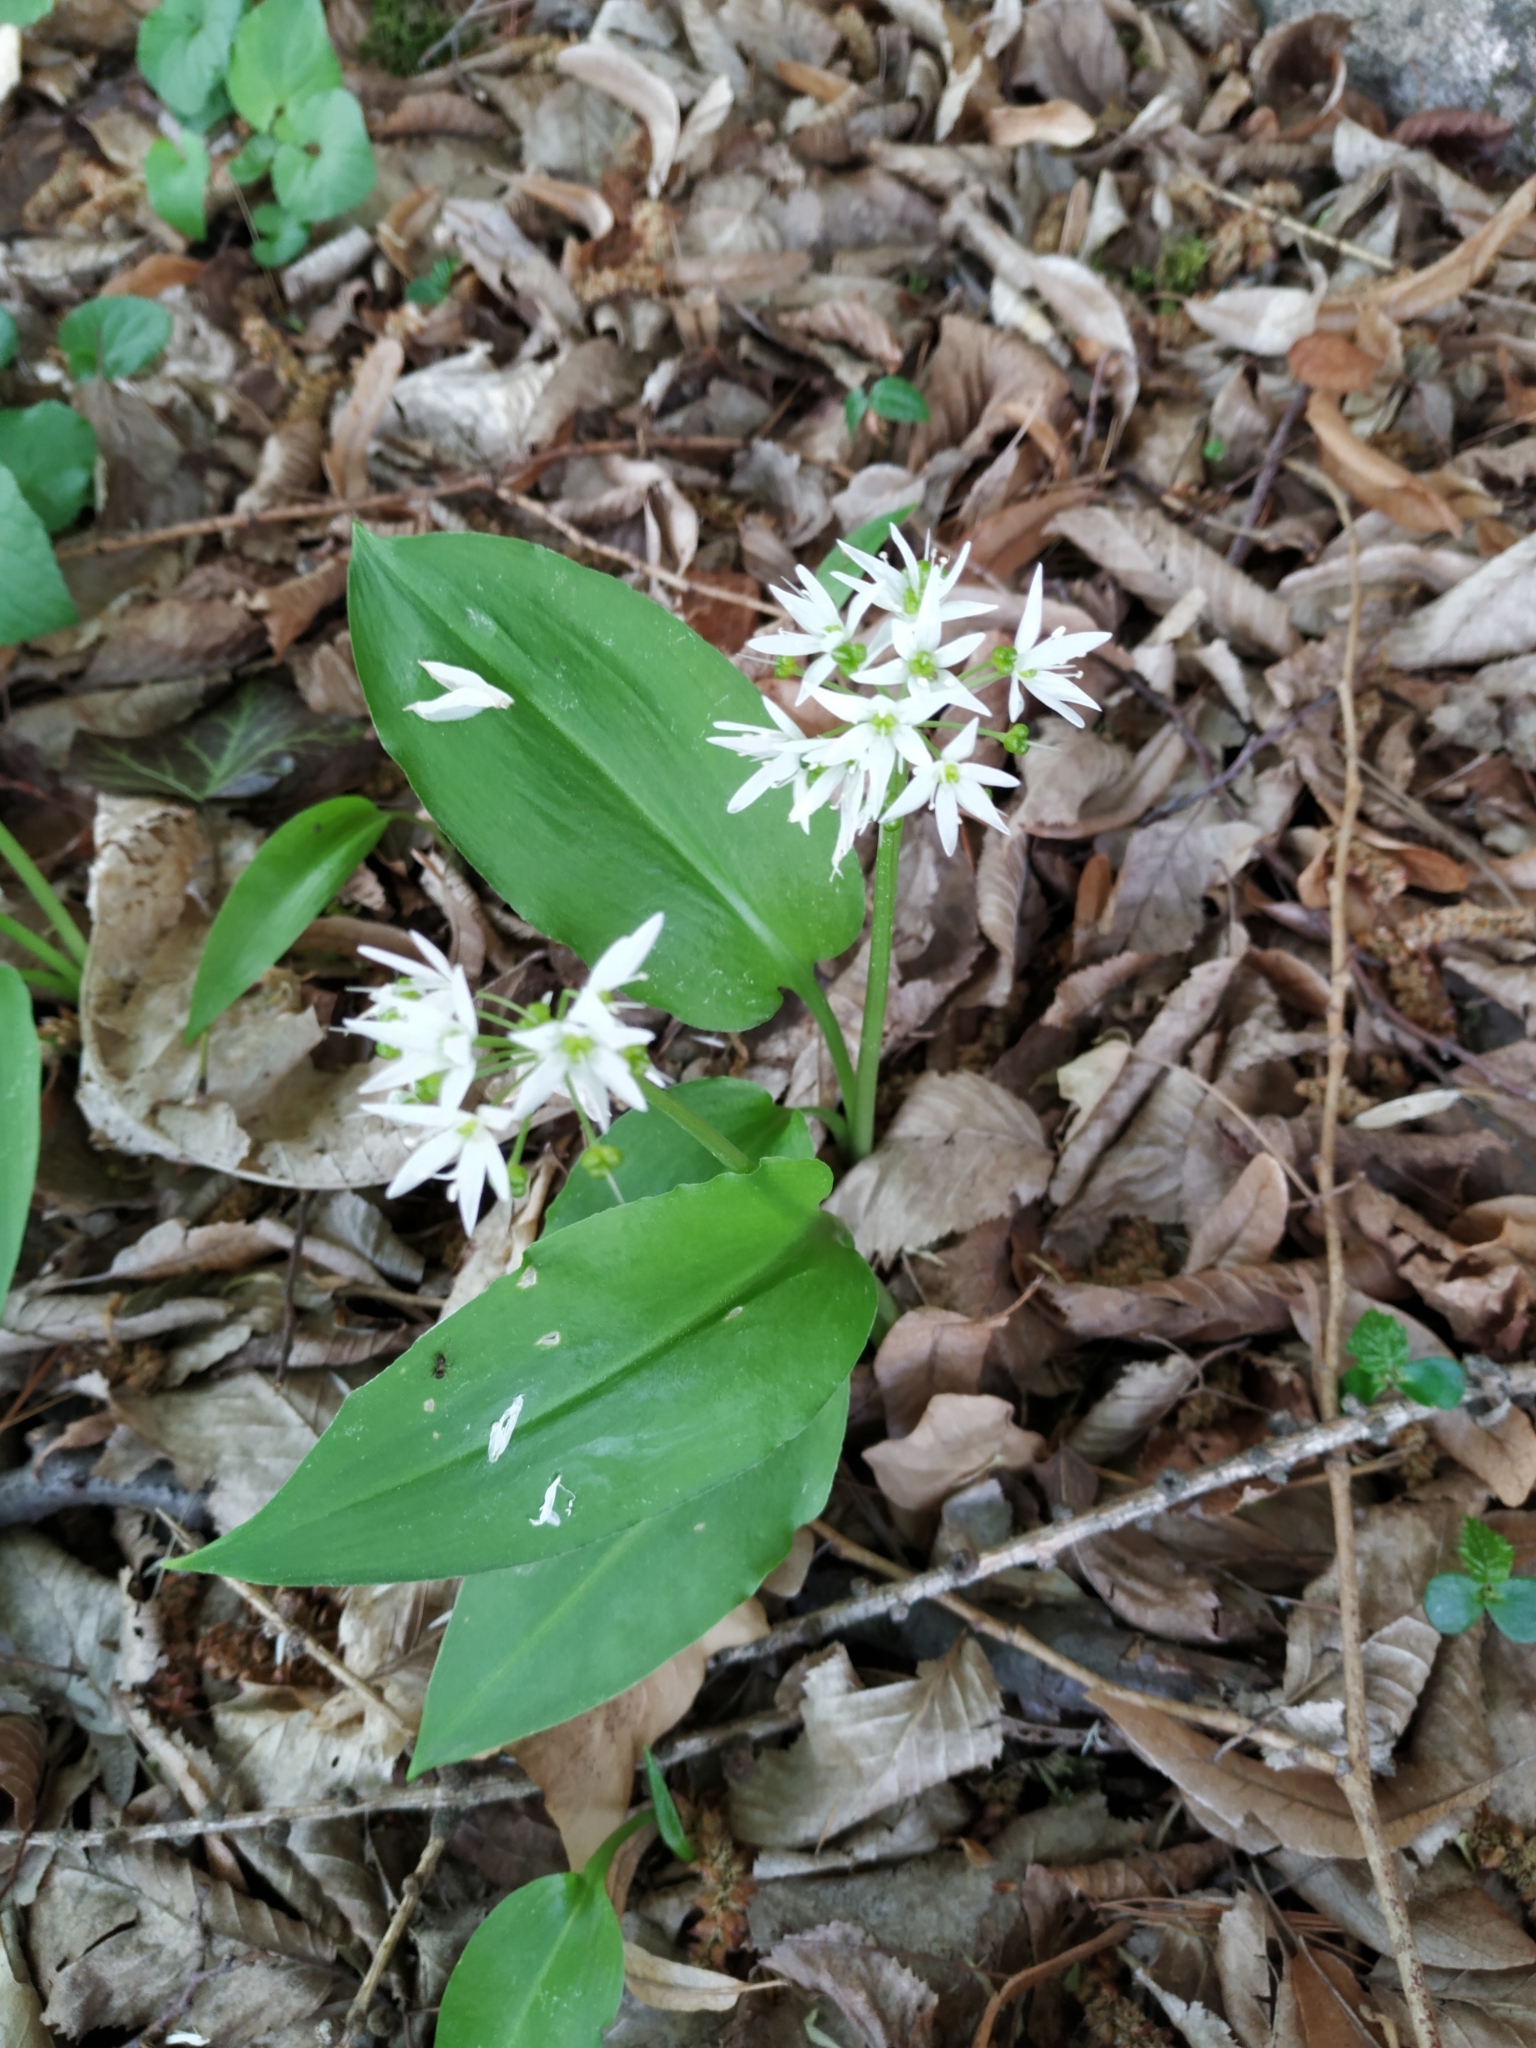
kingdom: Plantae
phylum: Tracheophyta
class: Liliopsida
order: Asparagales
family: Amaryllidaceae
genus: Allium
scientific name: Allium ursinum
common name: Ramsons
